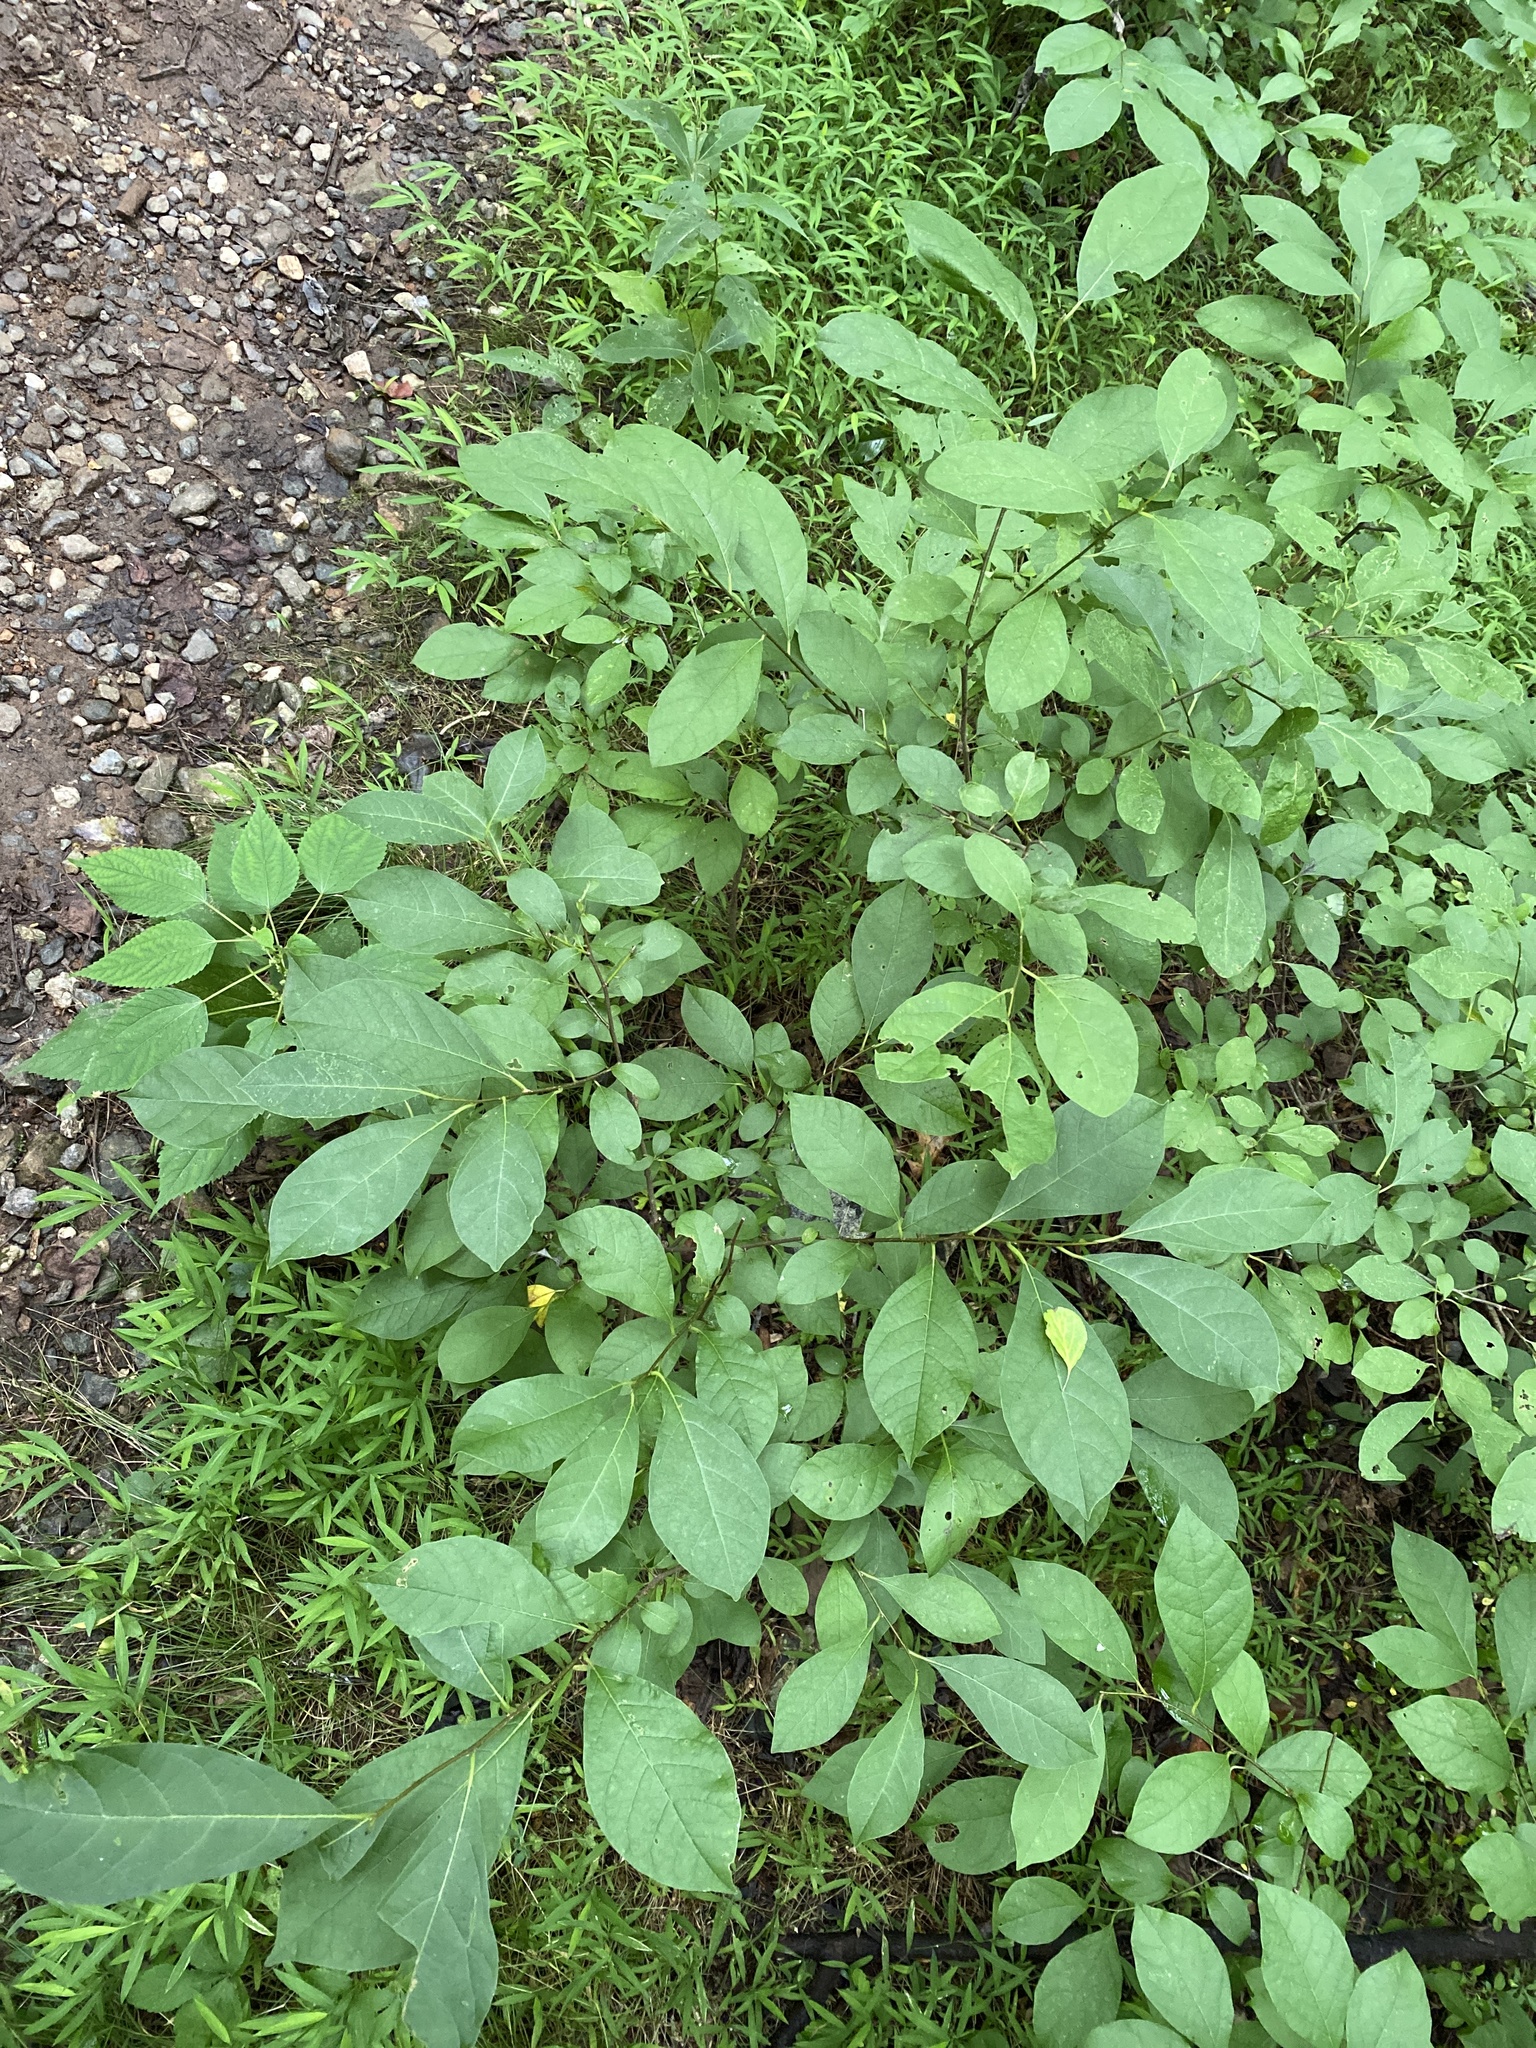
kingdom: Plantae
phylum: Tracheophyta
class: Magnoliopsida
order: Laurales
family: Lauraceae
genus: Lindera
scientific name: Lindera benzoin
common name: Spicebush
